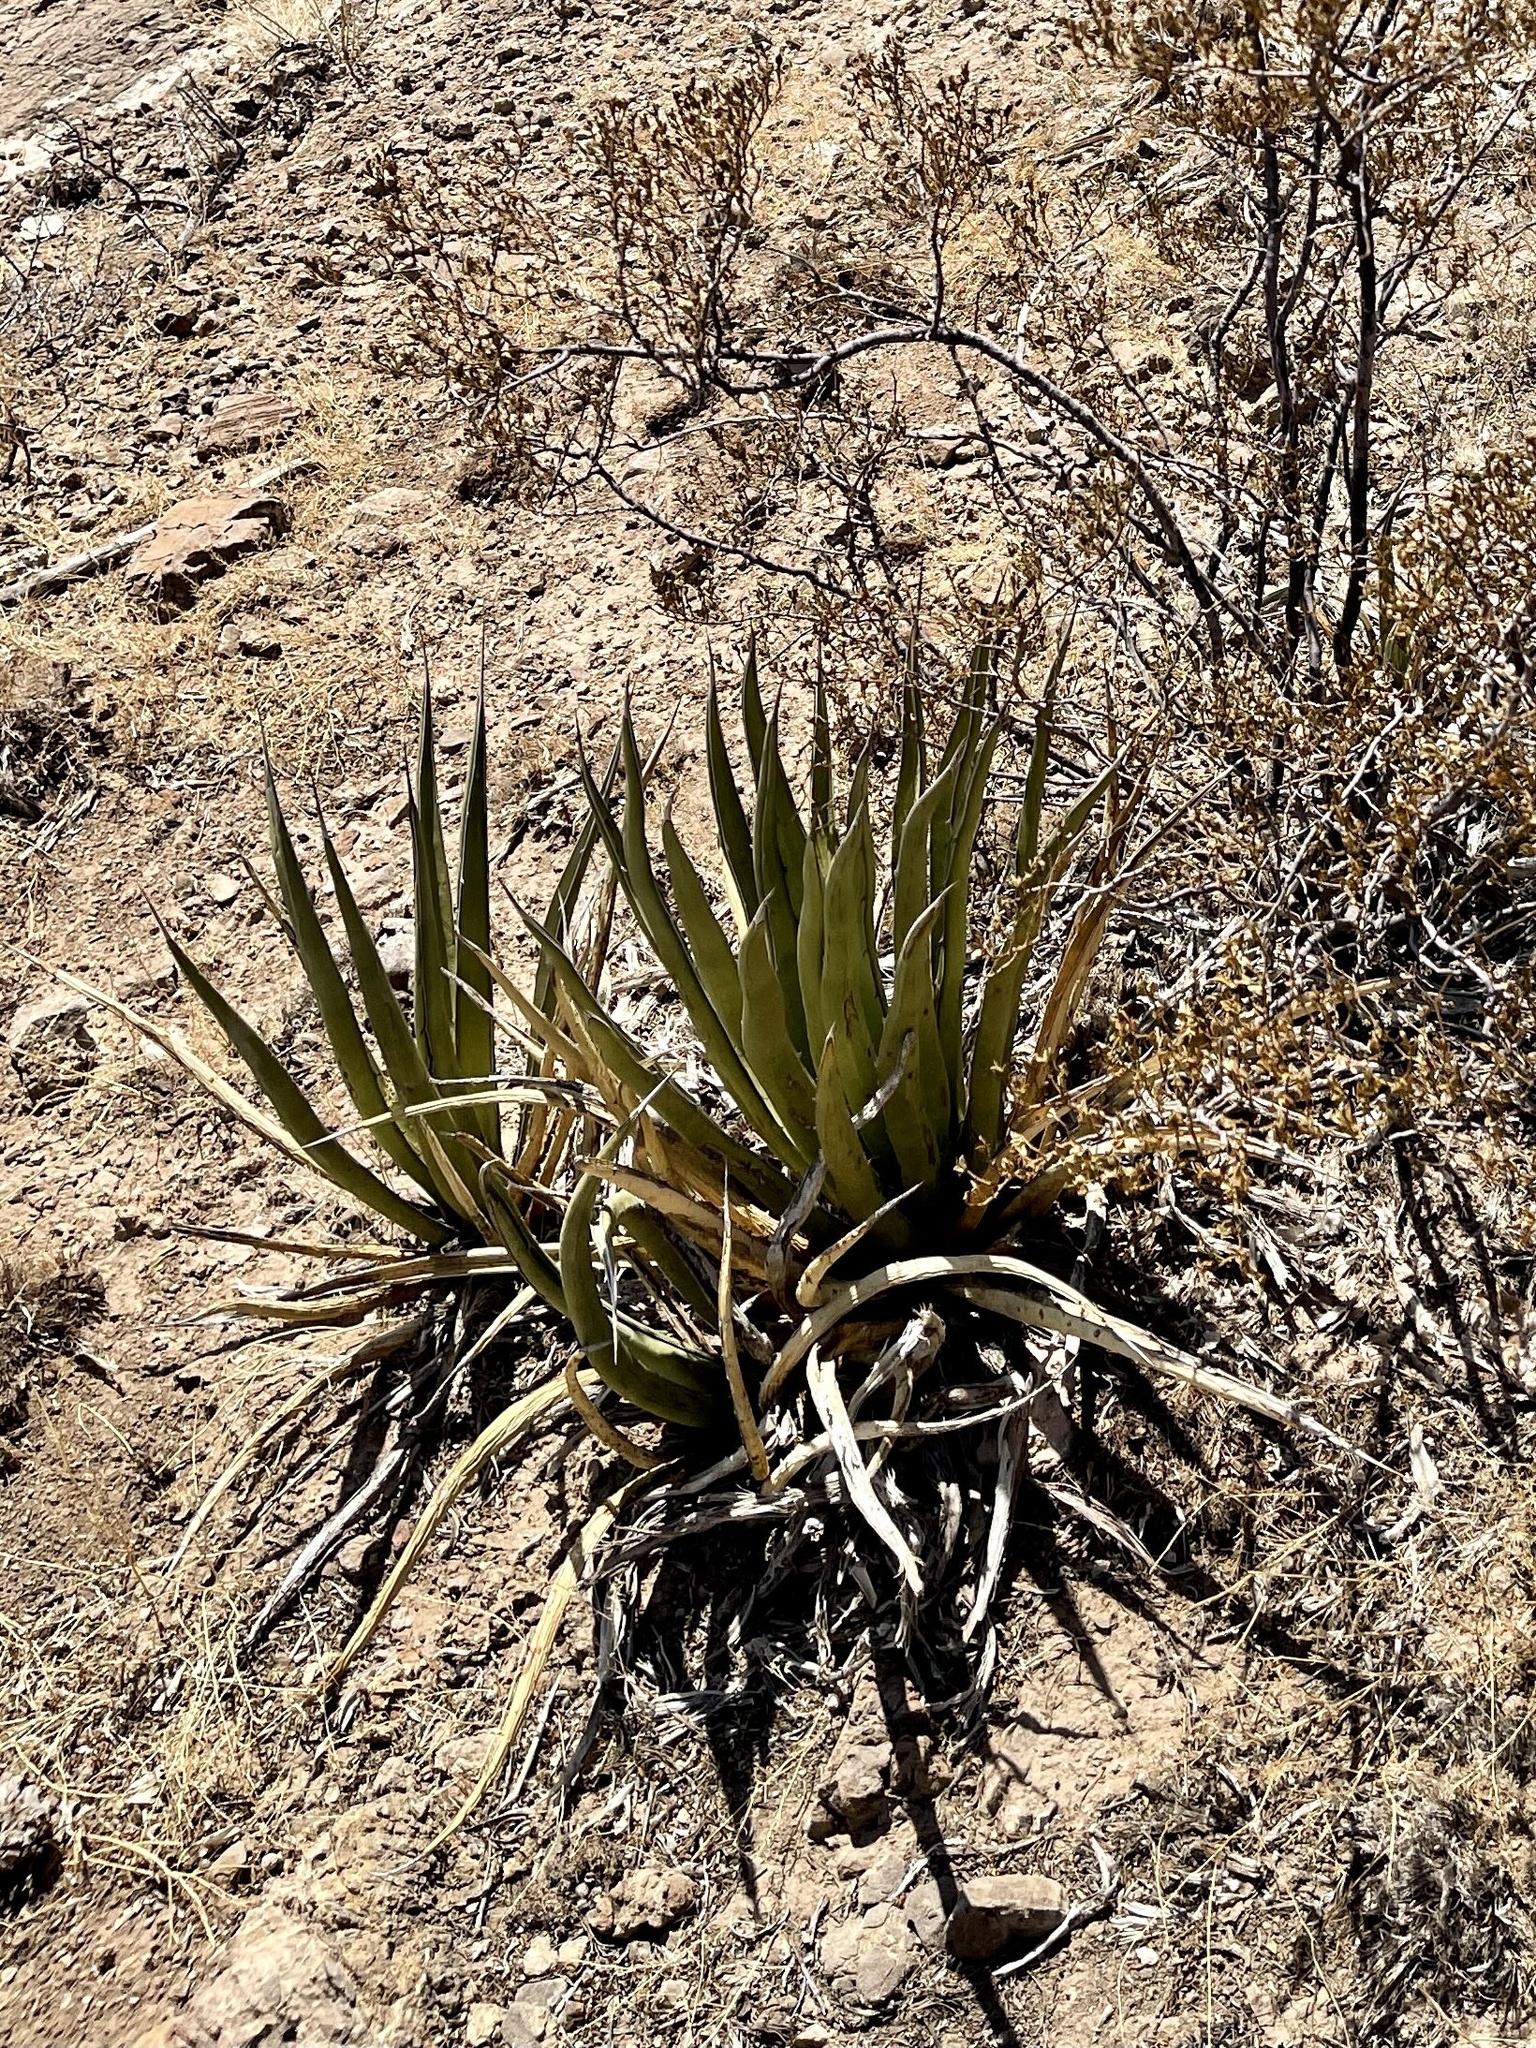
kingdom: Plantae
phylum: Tracheophyta
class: Liliopsida
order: Asparagales
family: Asparagaceae
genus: Agave
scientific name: Agave lechuguilla
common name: Lecheguilla agave
